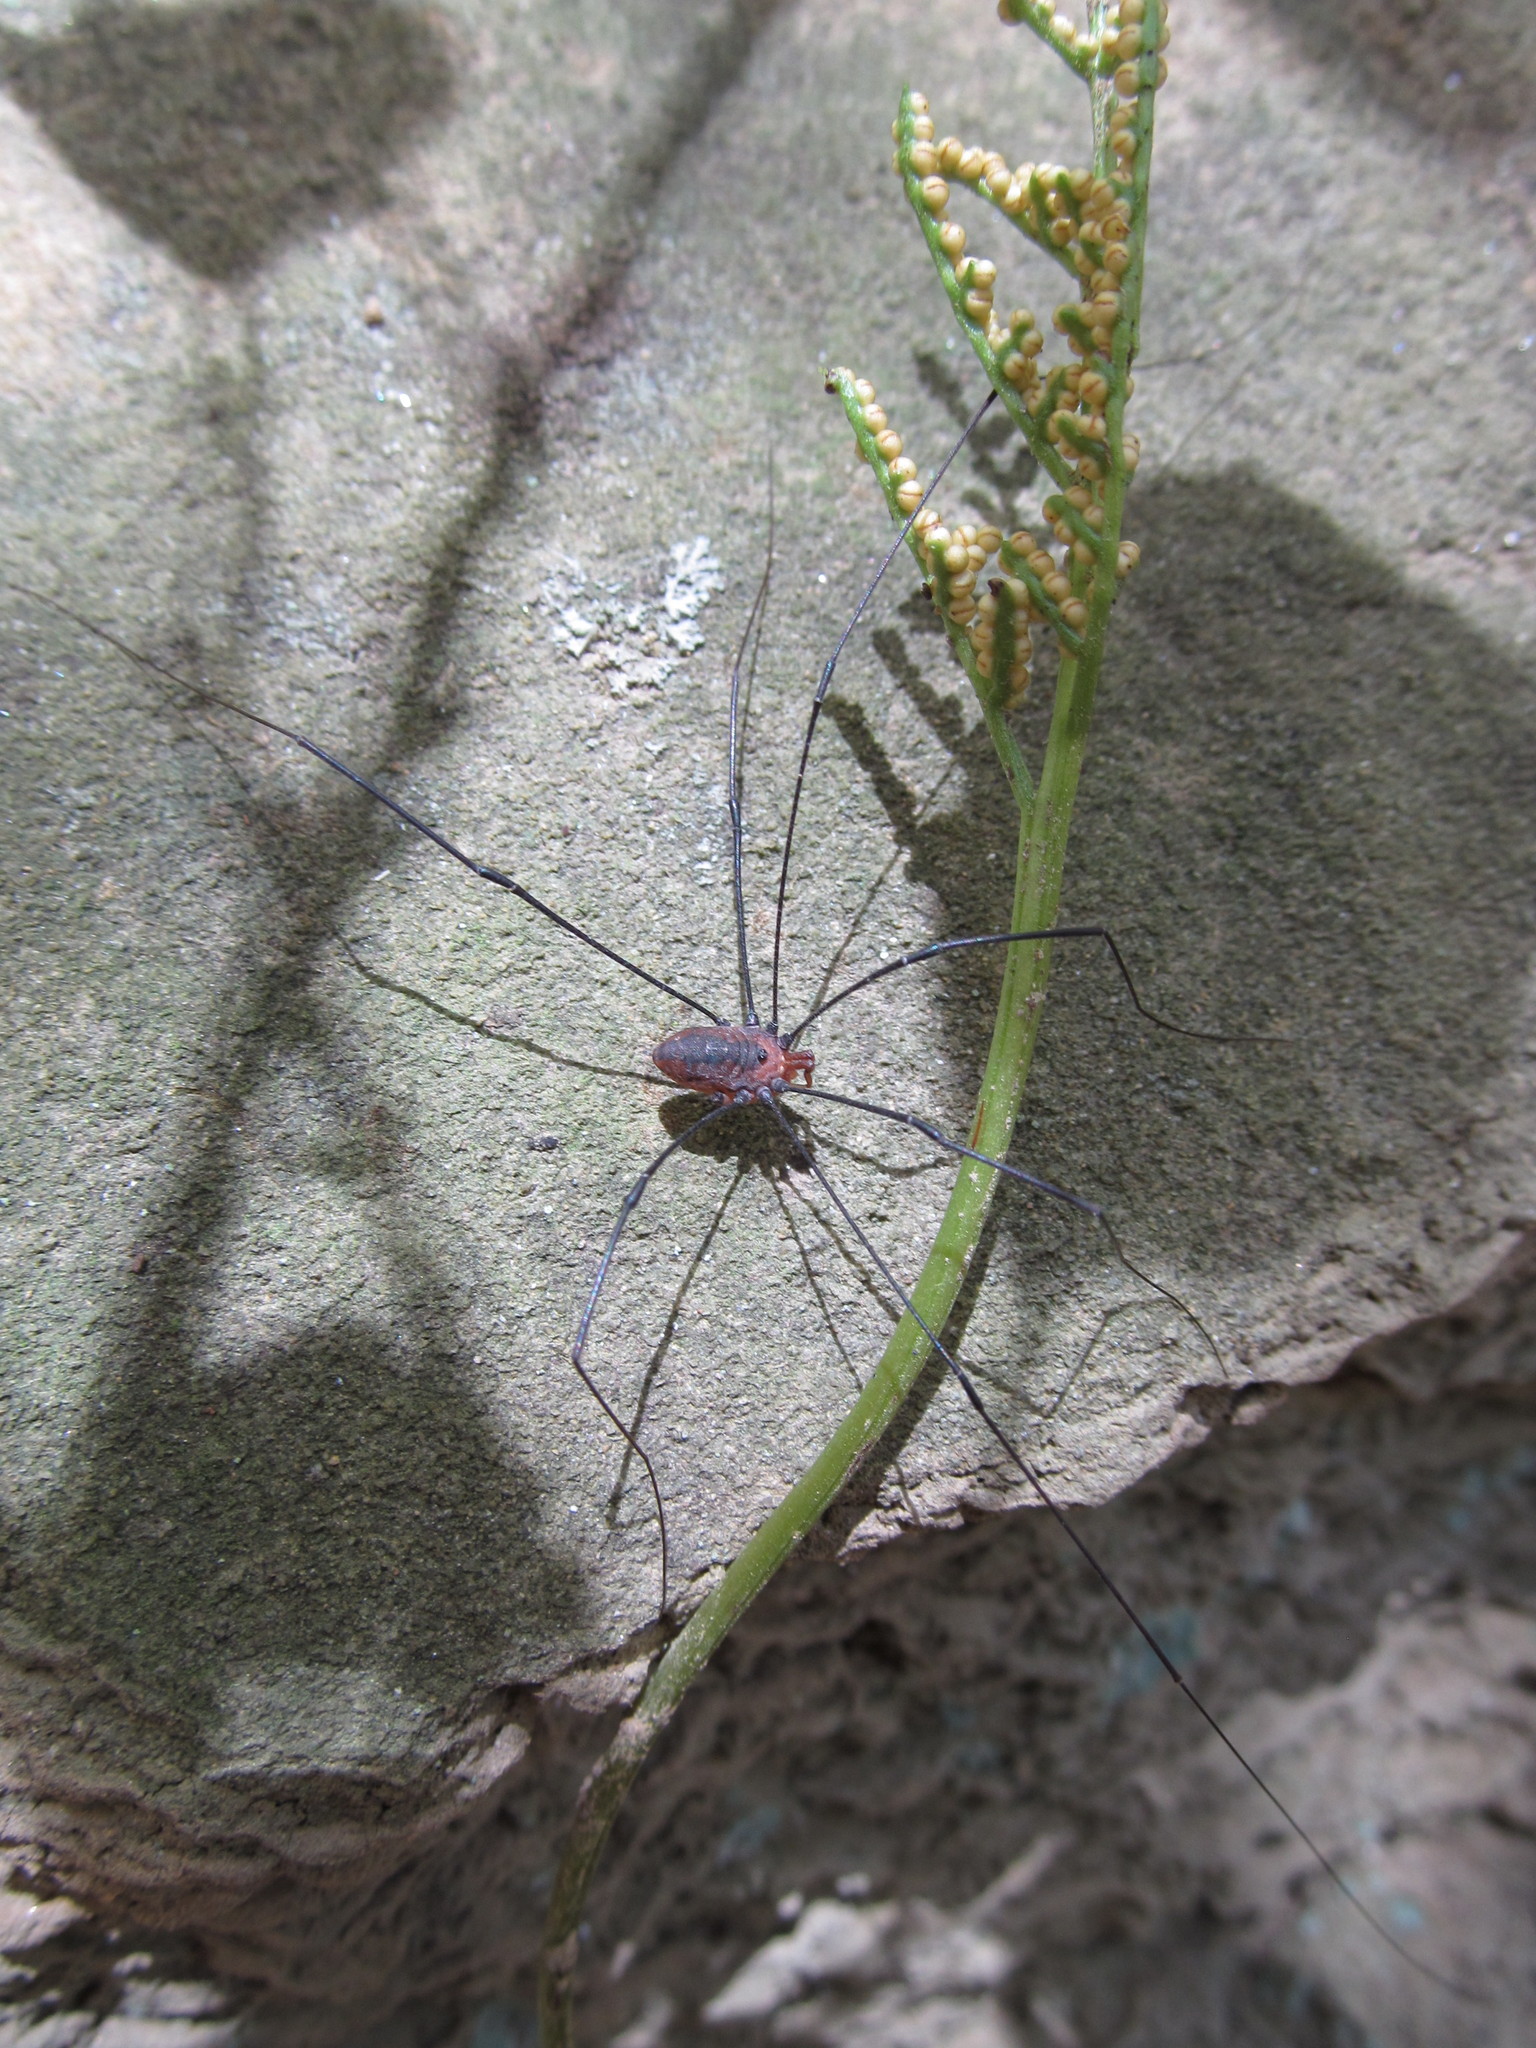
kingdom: Animalia
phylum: Arthropoda
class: Arachnida
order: Opiliones
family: Sclerosomatidae
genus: Leiobunum
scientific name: Leiobunum vittatum
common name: Eastern harvestman
